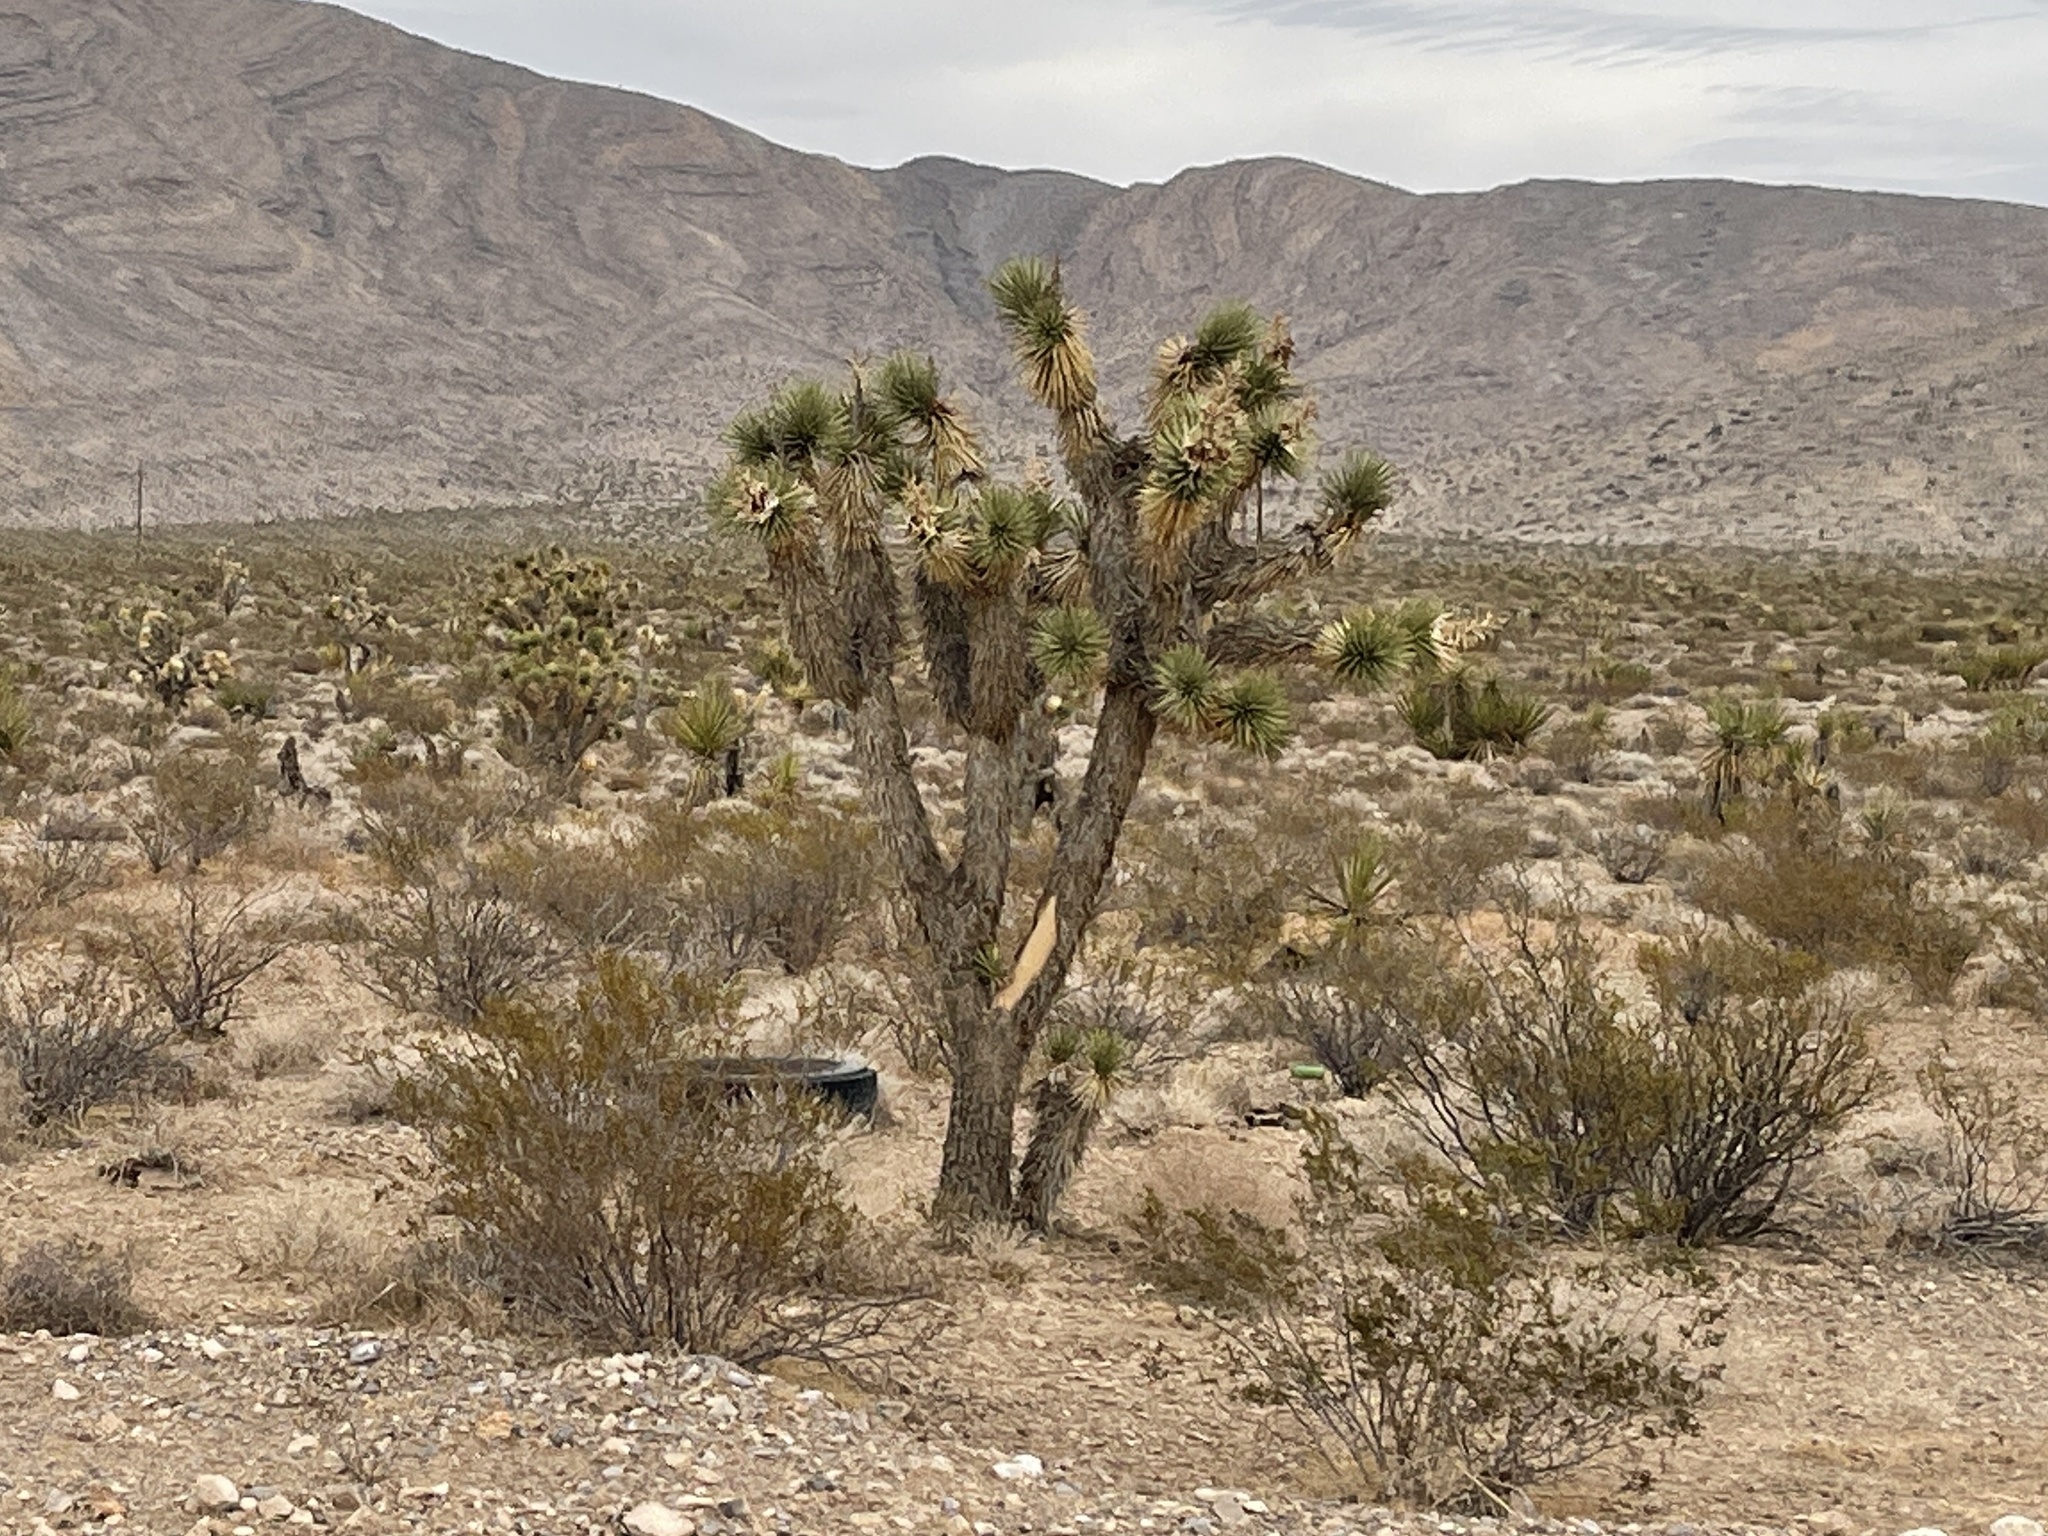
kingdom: Plantae
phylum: Tracheophyta
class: Liliopsida
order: Asparagales
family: Asparagaceae
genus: Yucca
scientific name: Yucca brevifolia
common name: Joshua tree
